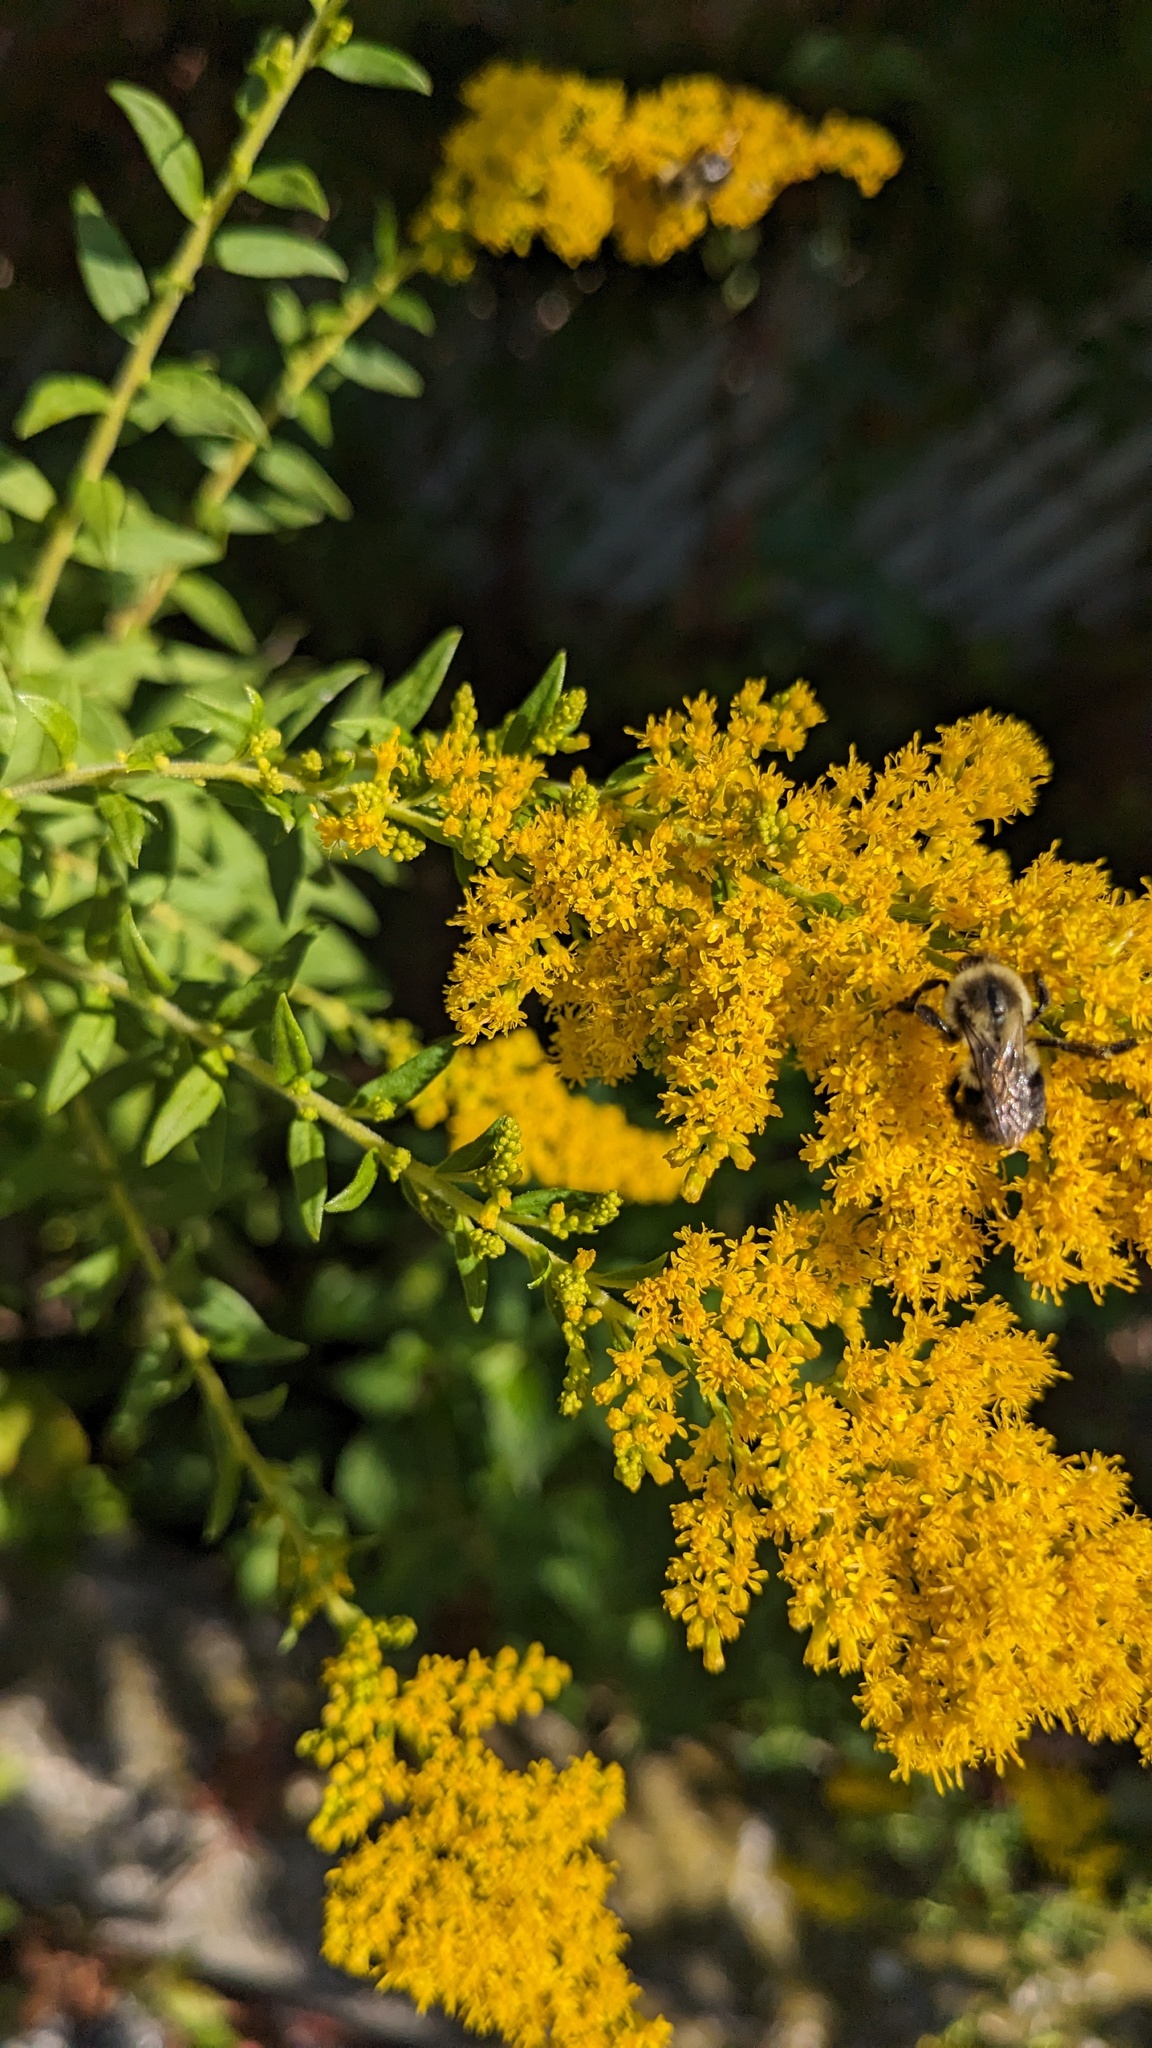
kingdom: Animalia
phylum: Arthropoda
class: Insecta
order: Hymenoptera
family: Apidae
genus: Bombus
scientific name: Bombus impatiens
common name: Common eastern bumble bee
